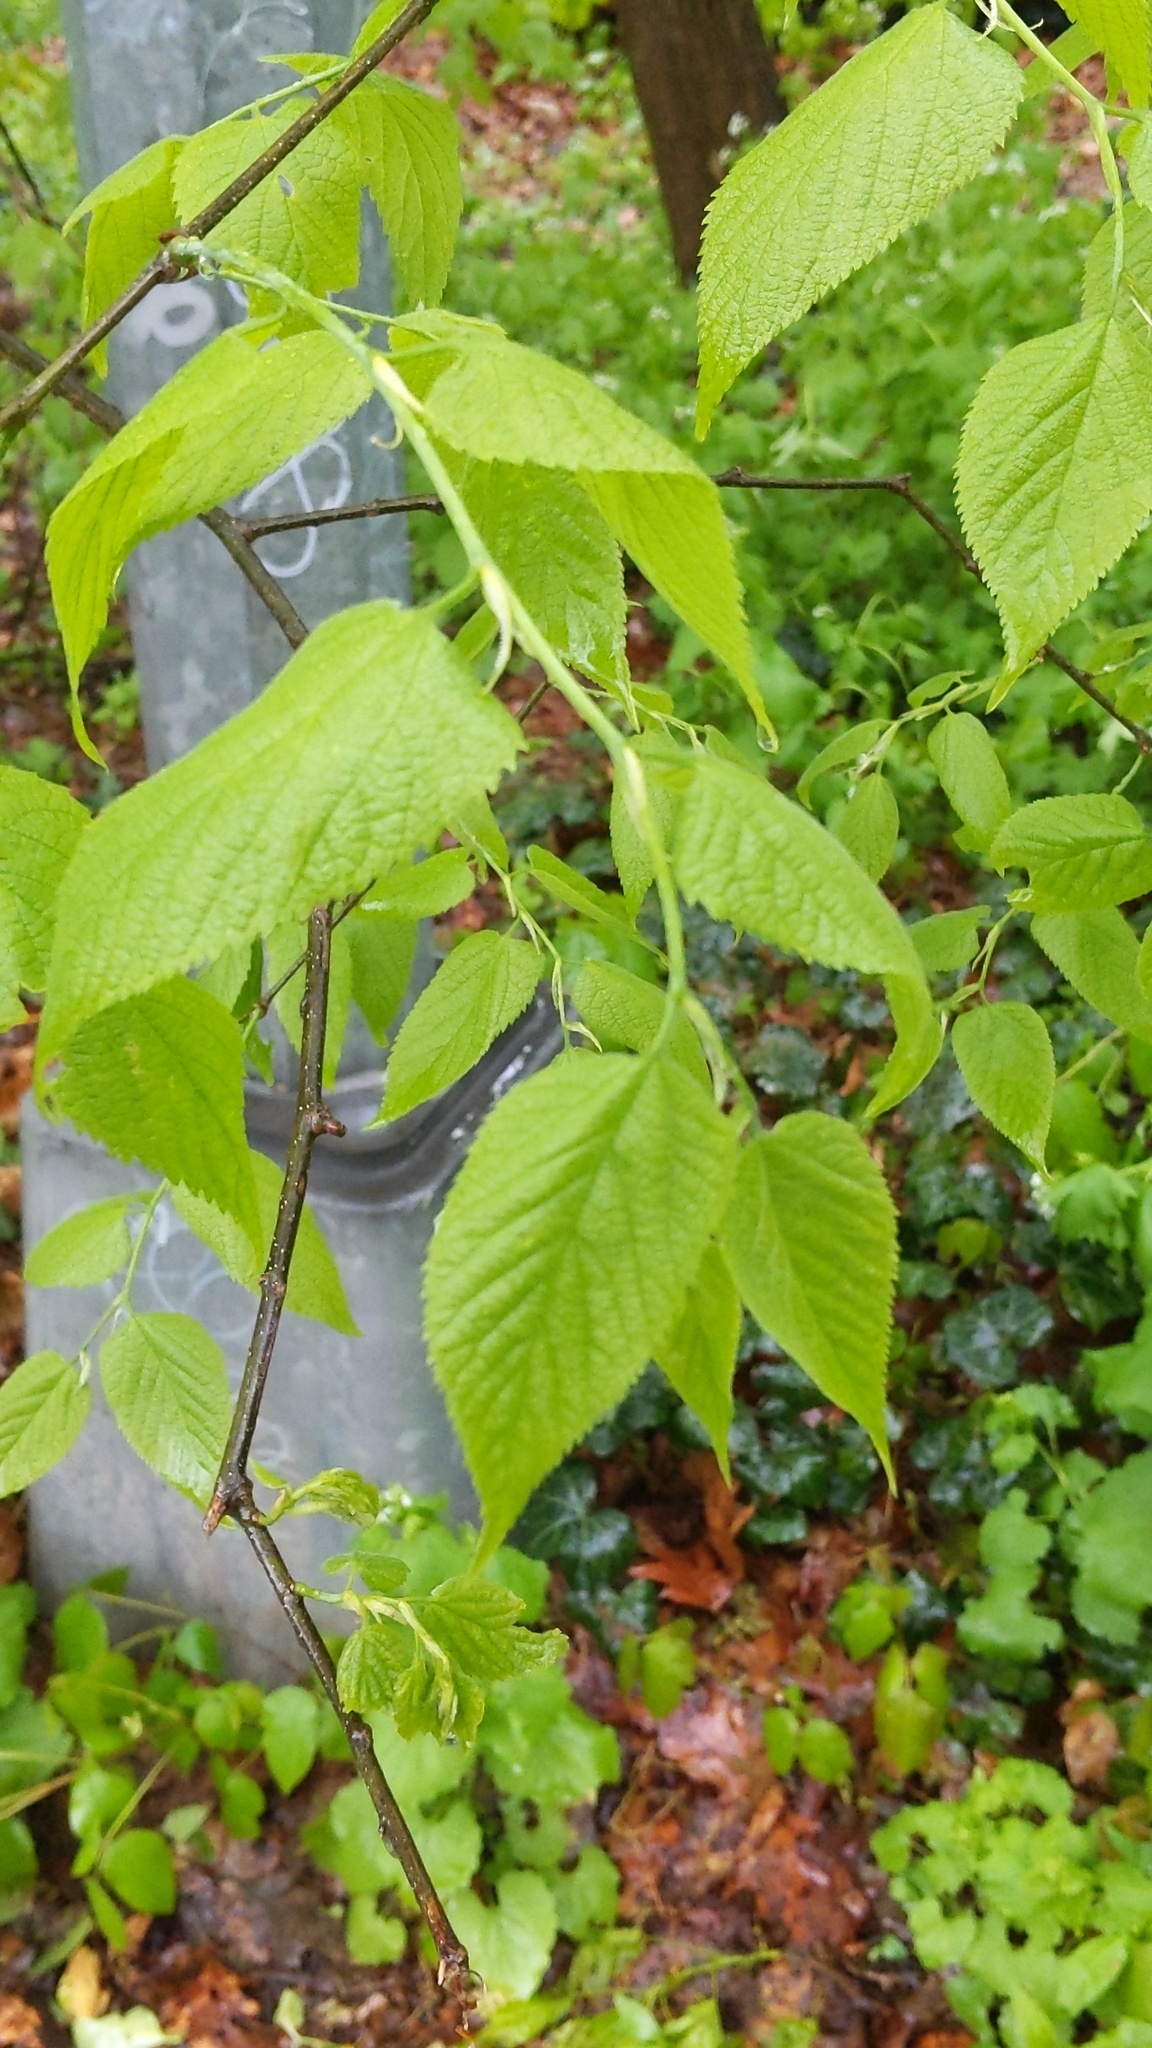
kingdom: Plantae
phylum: Tracheophyta
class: Magnoliopsida
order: Rosales
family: Cannabaceae
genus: Celtis
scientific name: Celtis occidentalis
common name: Common hackberry
